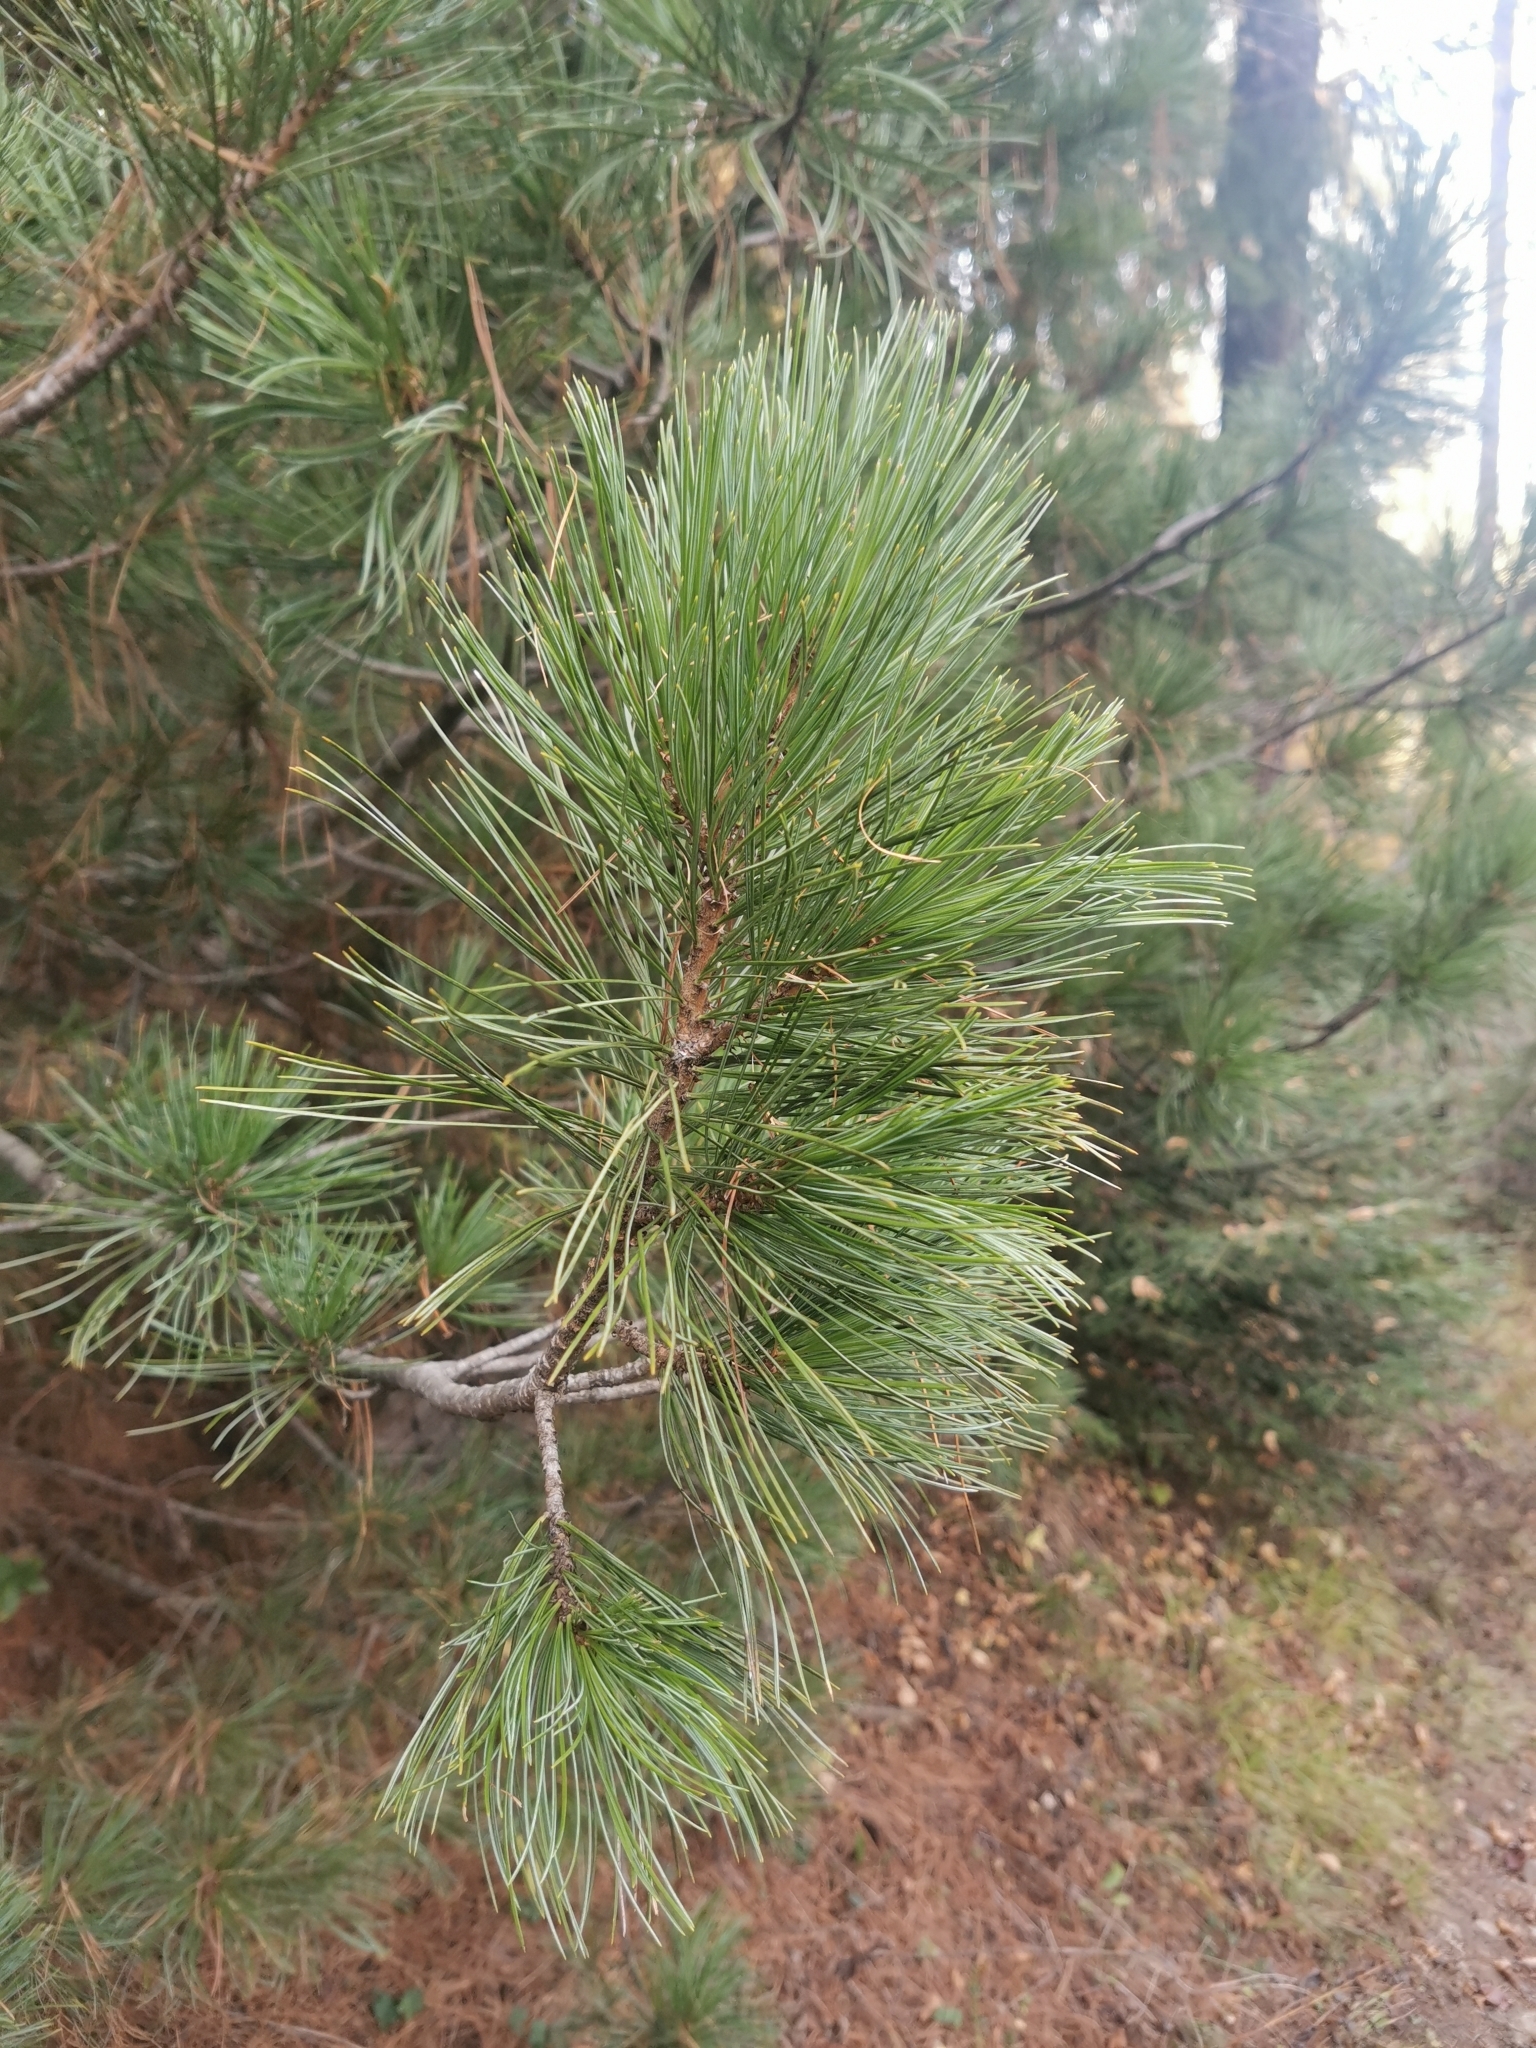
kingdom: Plantae
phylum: Tracheophyta
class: Pinopsida
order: Pinales
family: Pinaceae
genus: Pinus
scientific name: Pinus cembra
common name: Arolla pine
